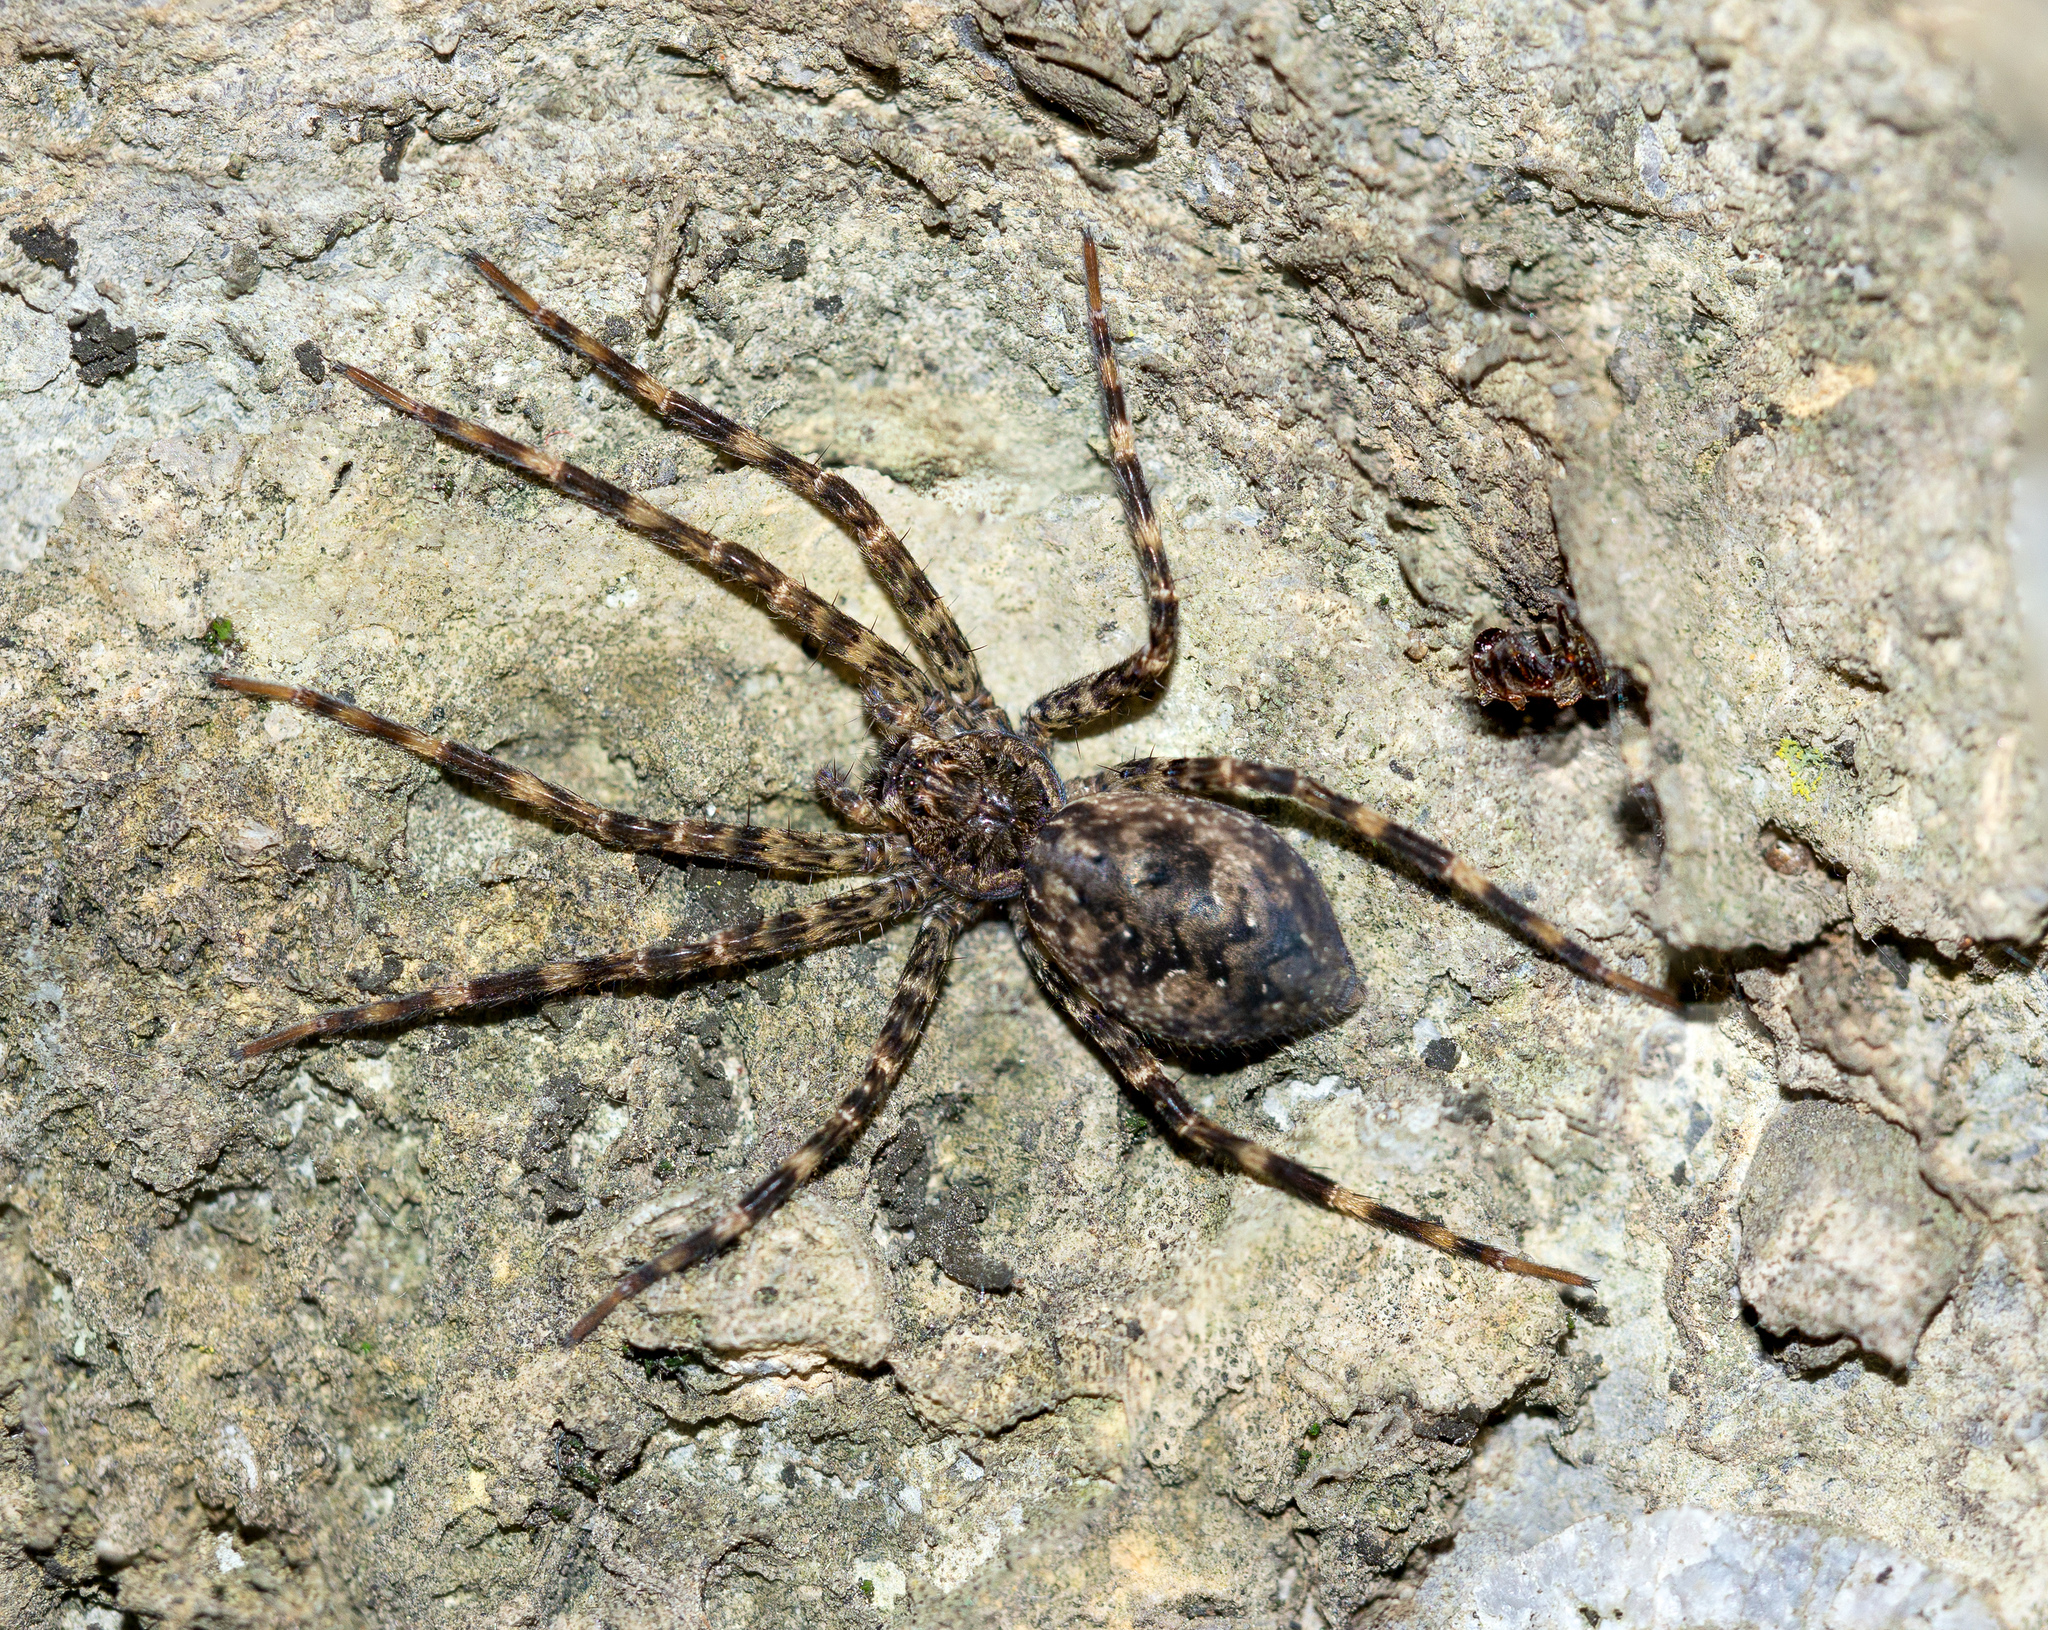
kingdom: Animalia
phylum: Arthropoda
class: Arachnida
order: Araneae
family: Pisauridae
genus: Dolomedes
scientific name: Dolomedes tenebrosus
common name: Dark fishing spider
